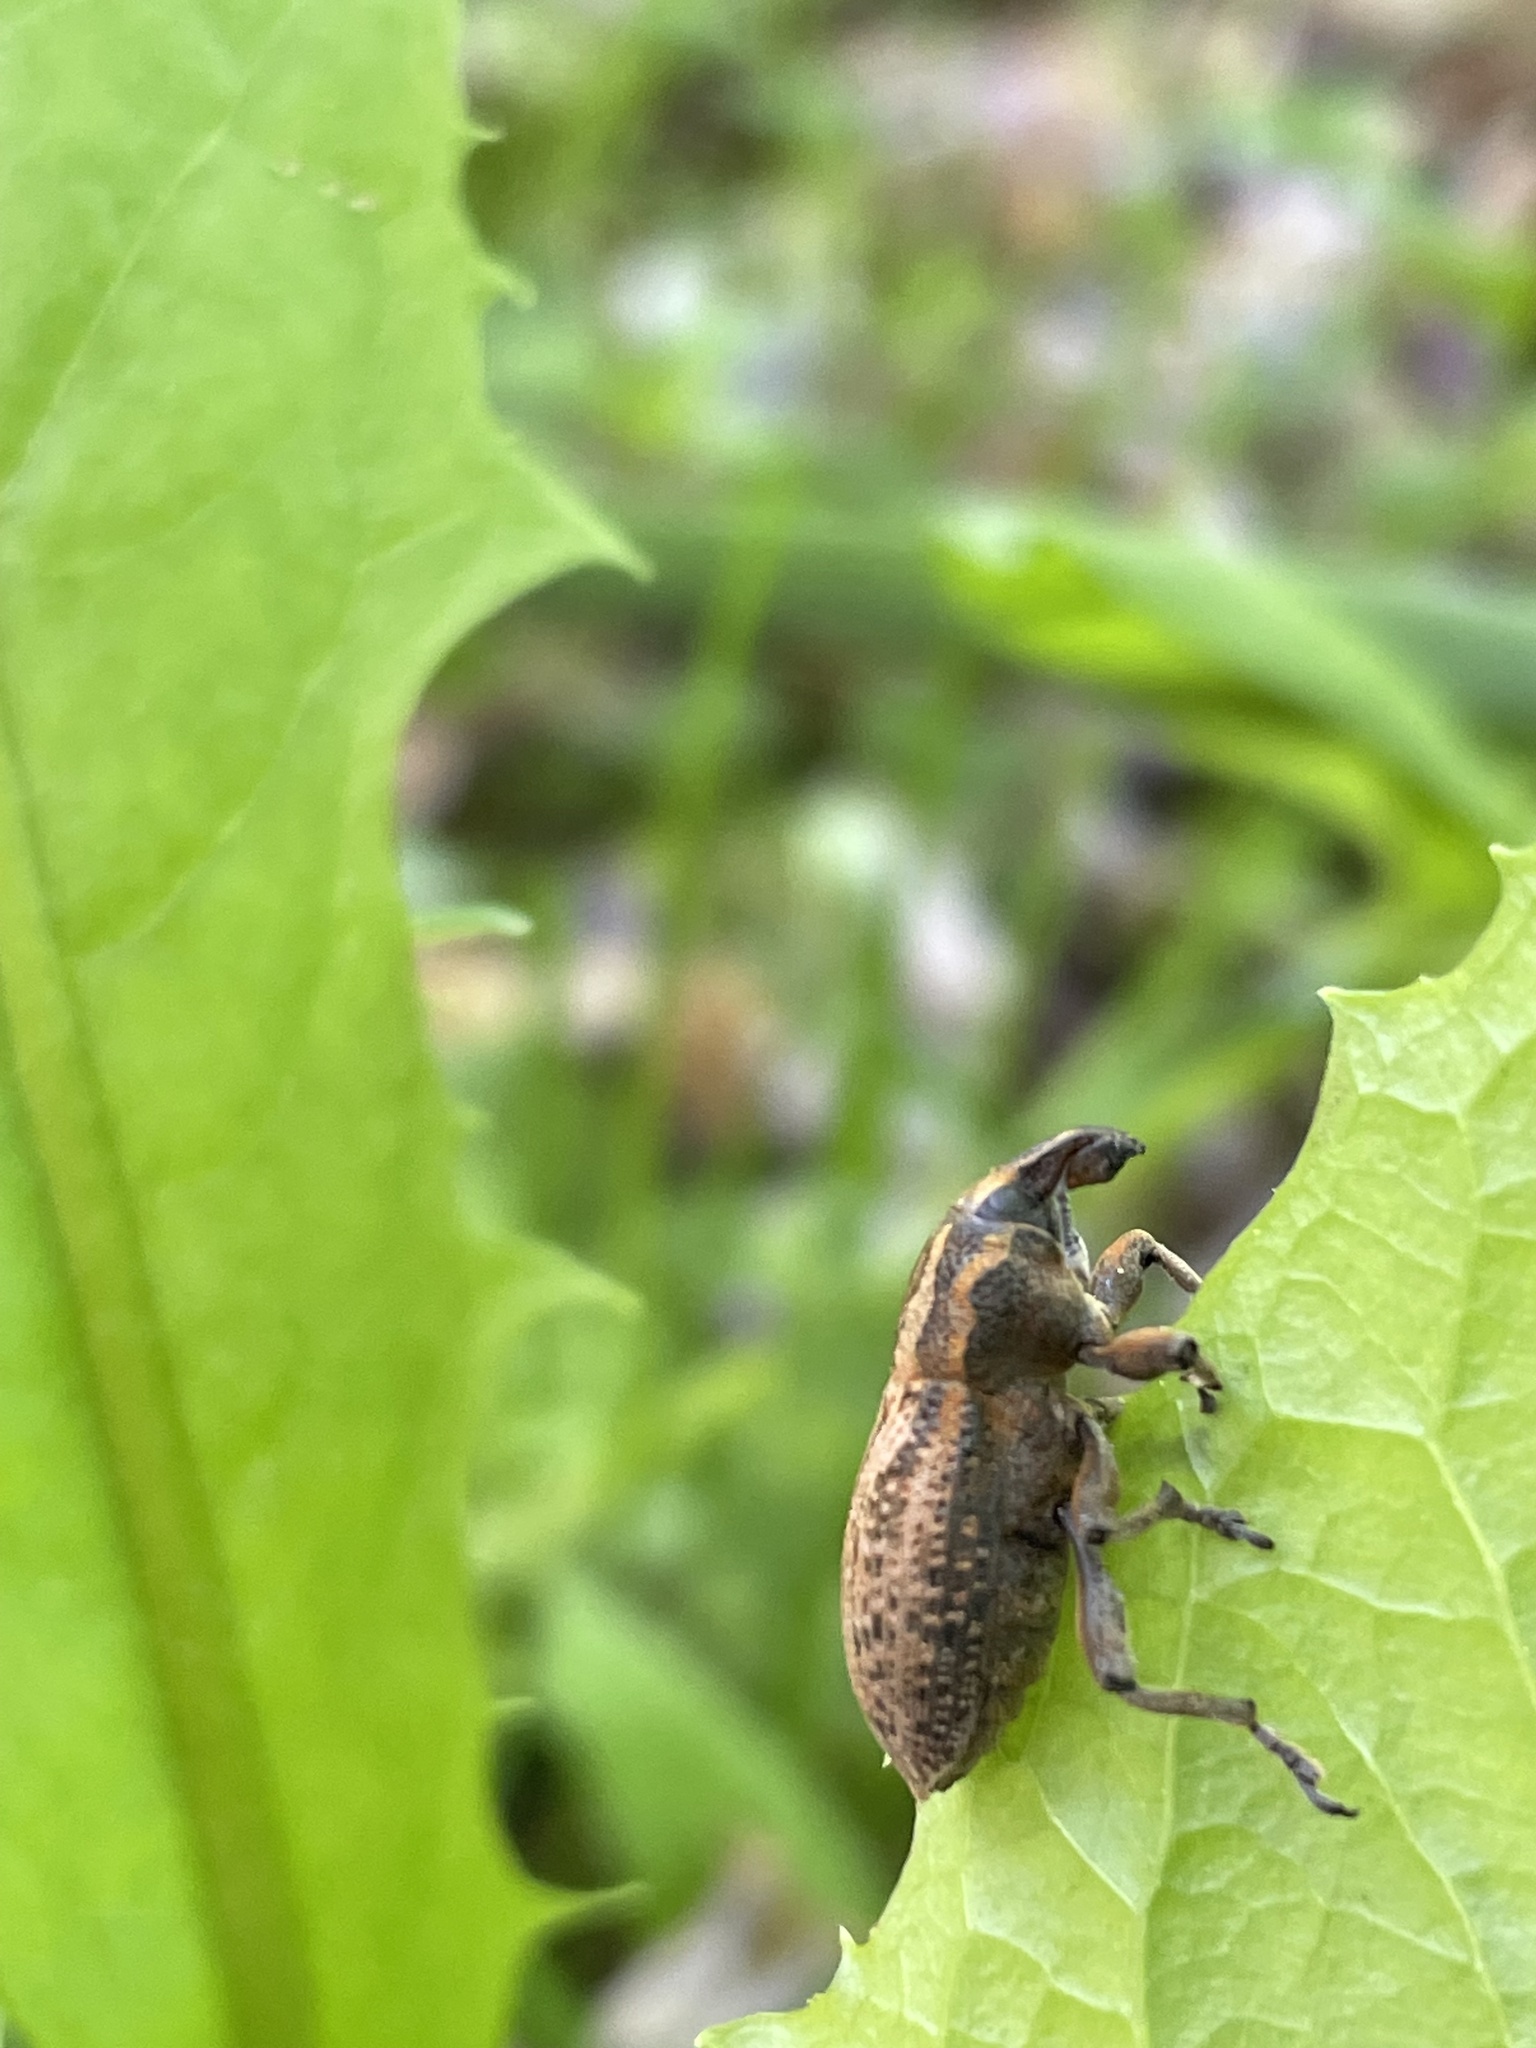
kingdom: Animalia
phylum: Arthropoda
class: Insecta
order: Coleoptera
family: Curculionidae
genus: Pseudocleonus
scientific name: Pseudocleonus cinereus
